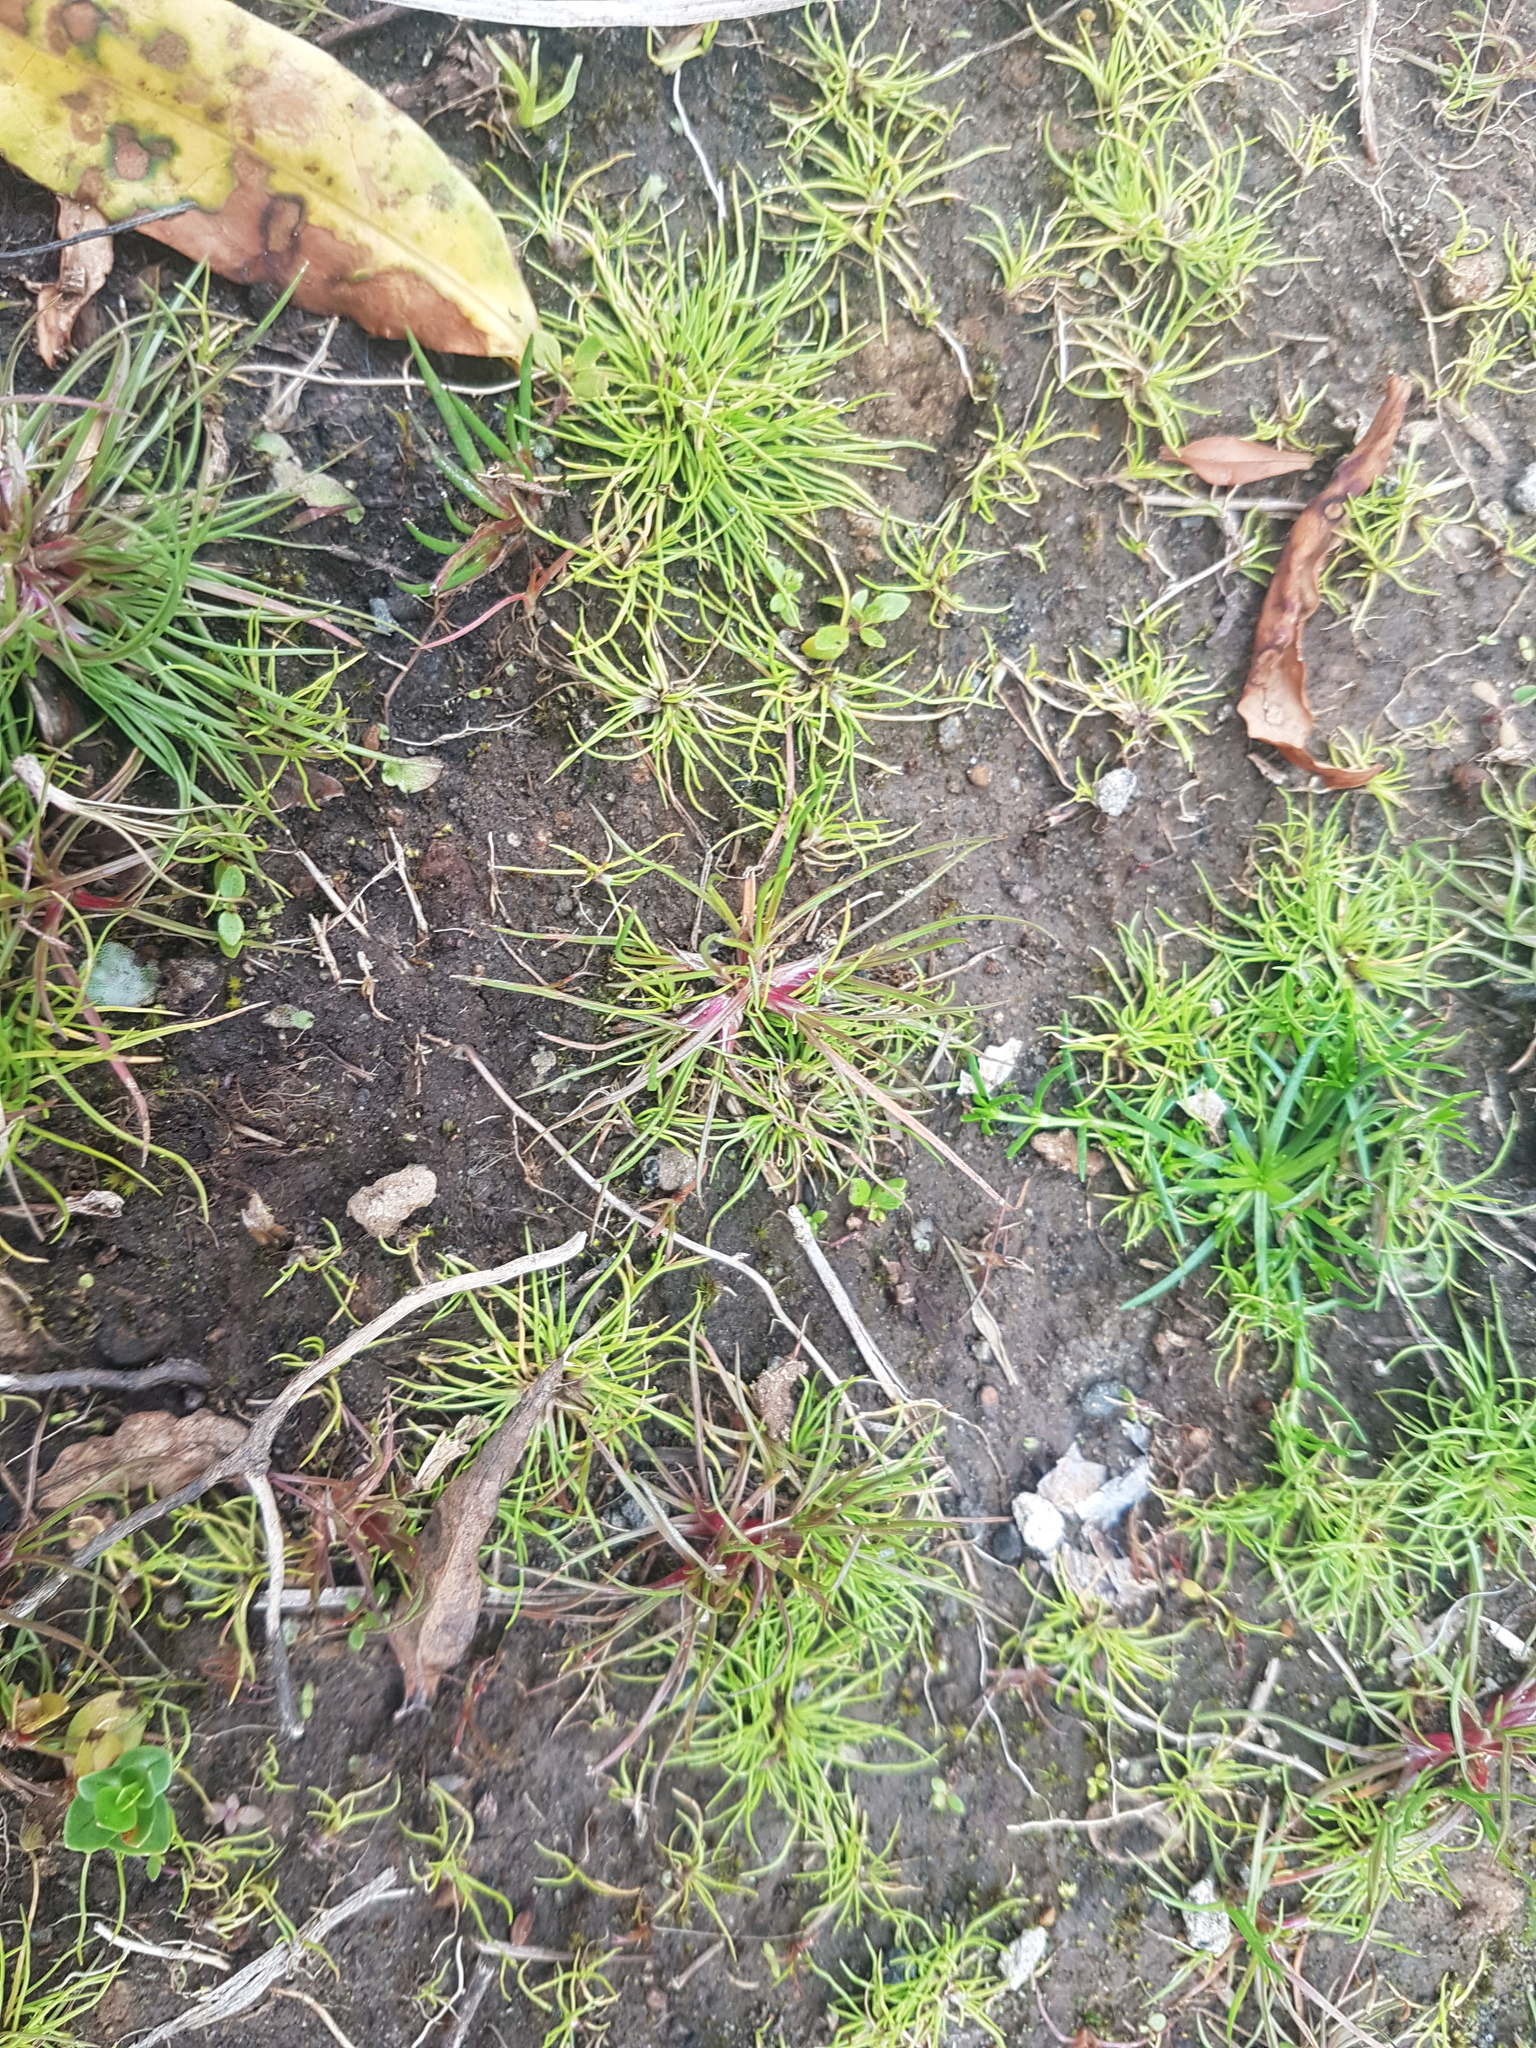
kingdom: Plantae
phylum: Tracheophyta
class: Magnoliopsida
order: Lamiales
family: Plantaginaceae
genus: Plantago
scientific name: Plantago coronopus
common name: Buck's-horn plantain
